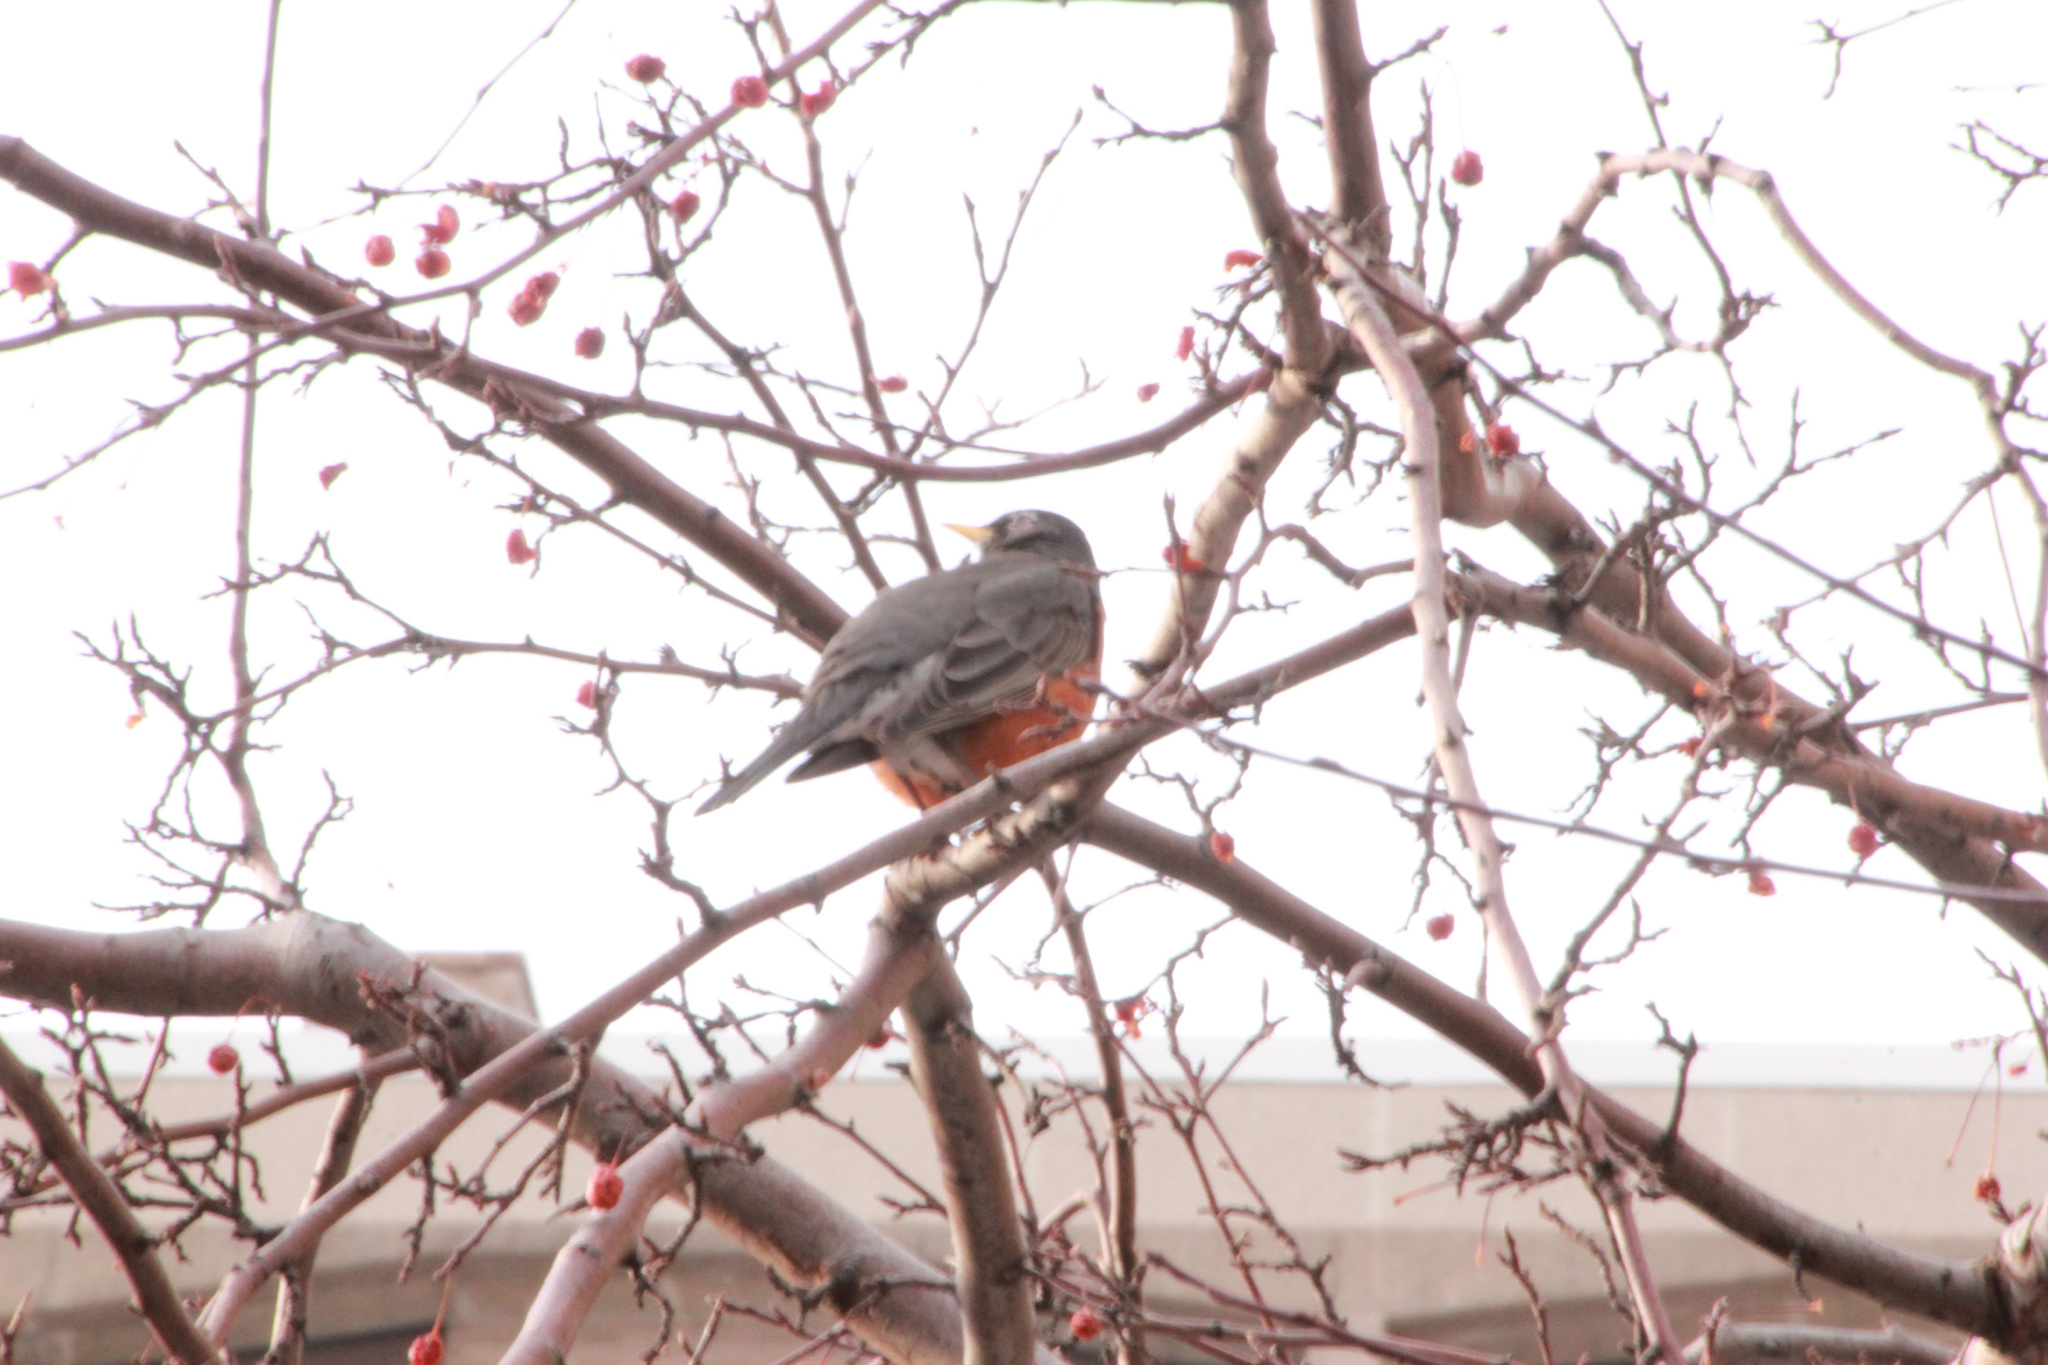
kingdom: Animalia
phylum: Chordata
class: Aves
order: Passeriformes
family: Turdidae
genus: Turdus
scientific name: Turdus migratorius
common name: American robin
